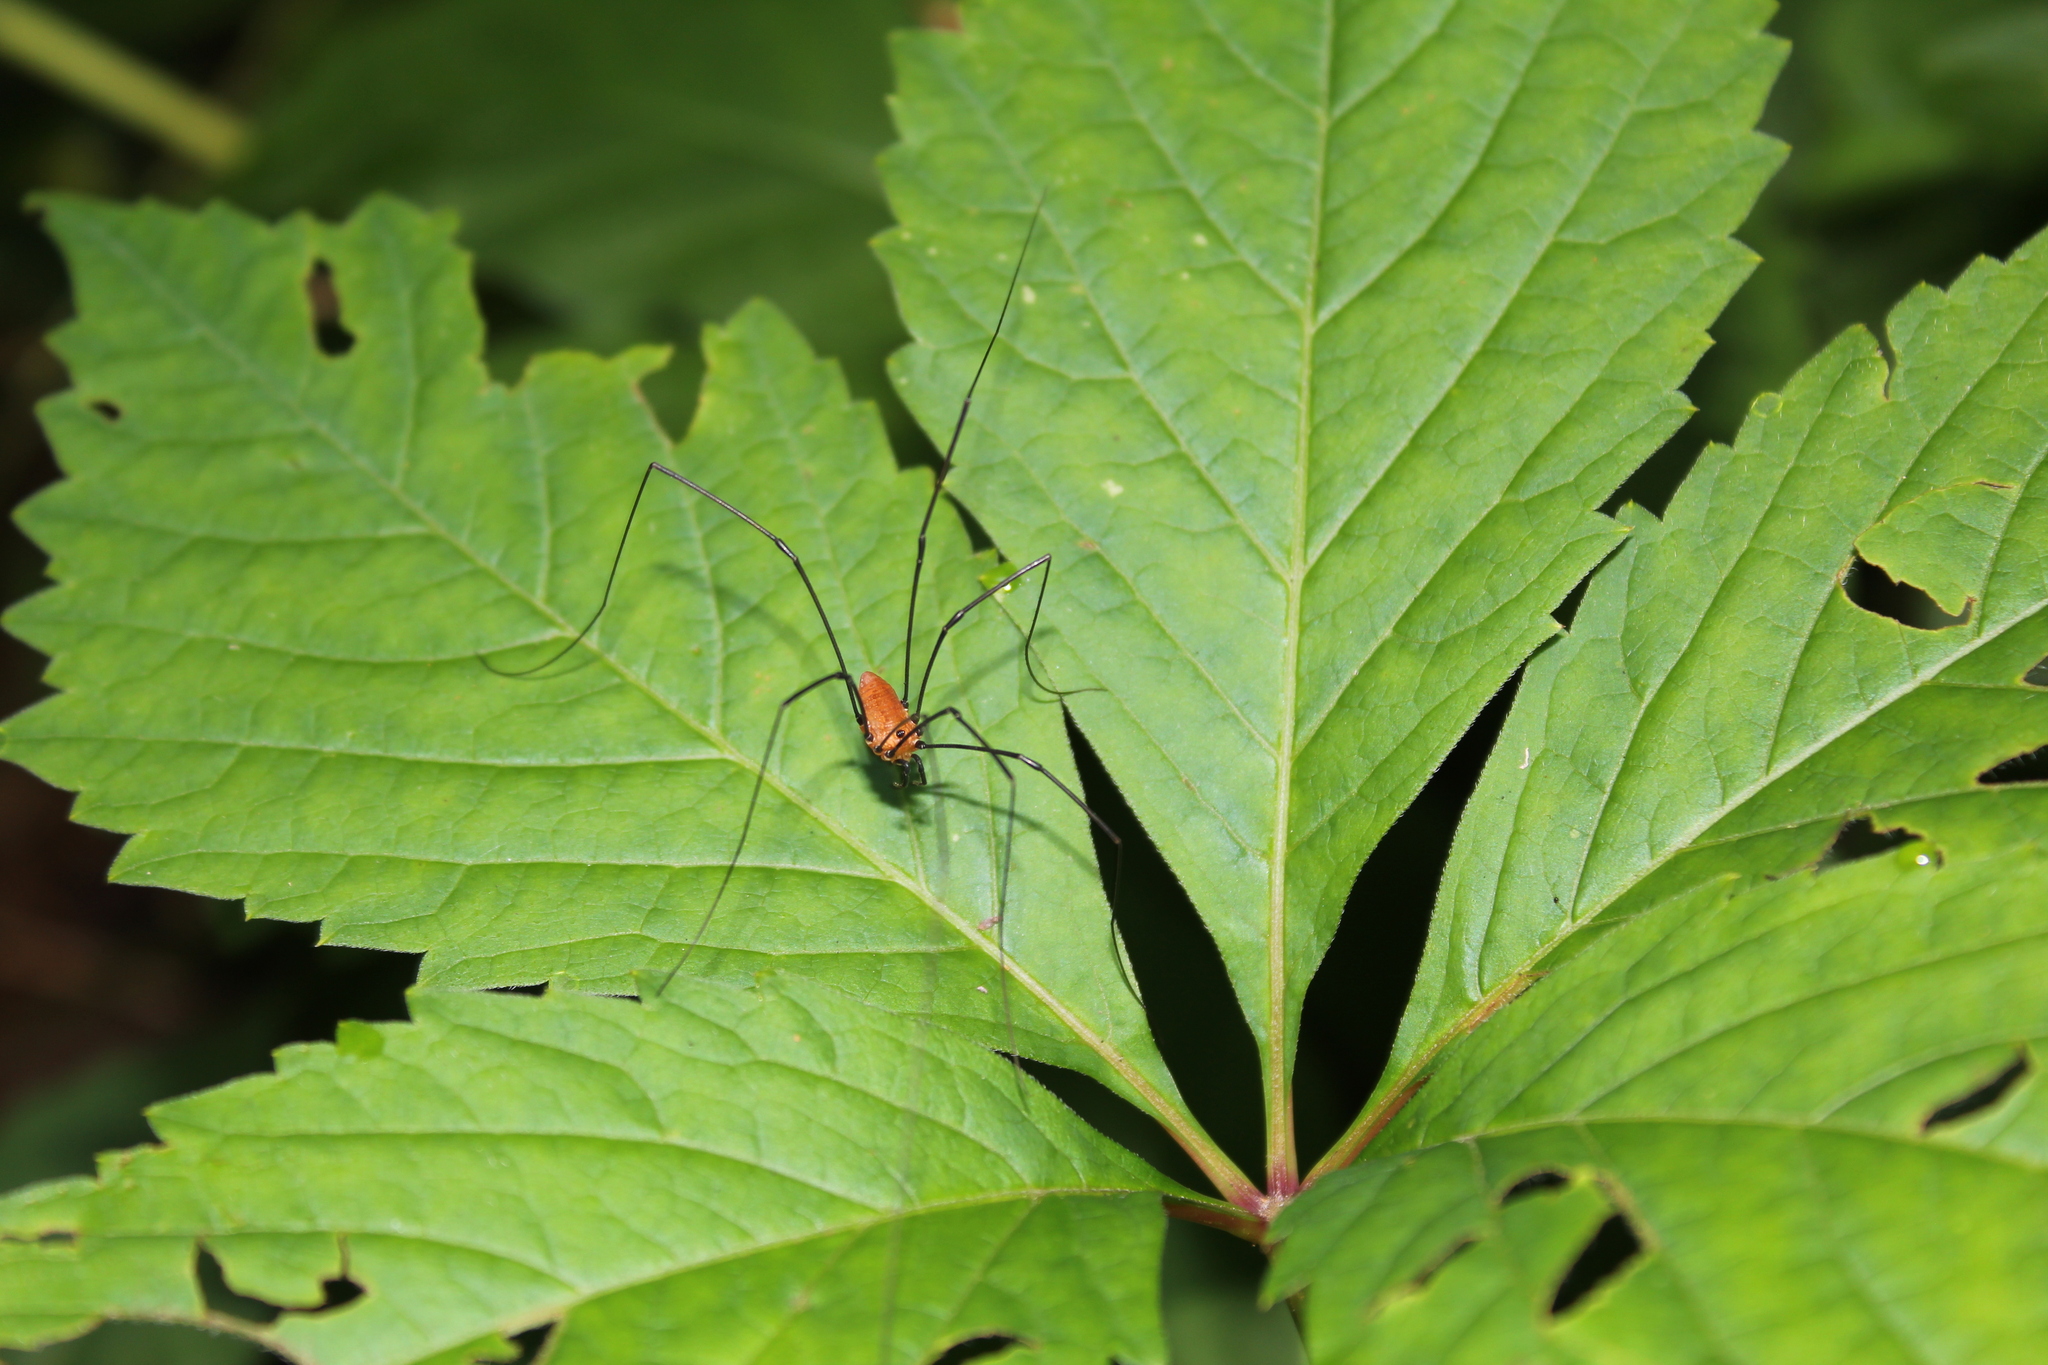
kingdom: Animalia
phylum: Arthropoda
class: Arachnida
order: Opiliones
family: Sclerosomatidae
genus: Leiobunum
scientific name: Leiobunum nigropalpi
